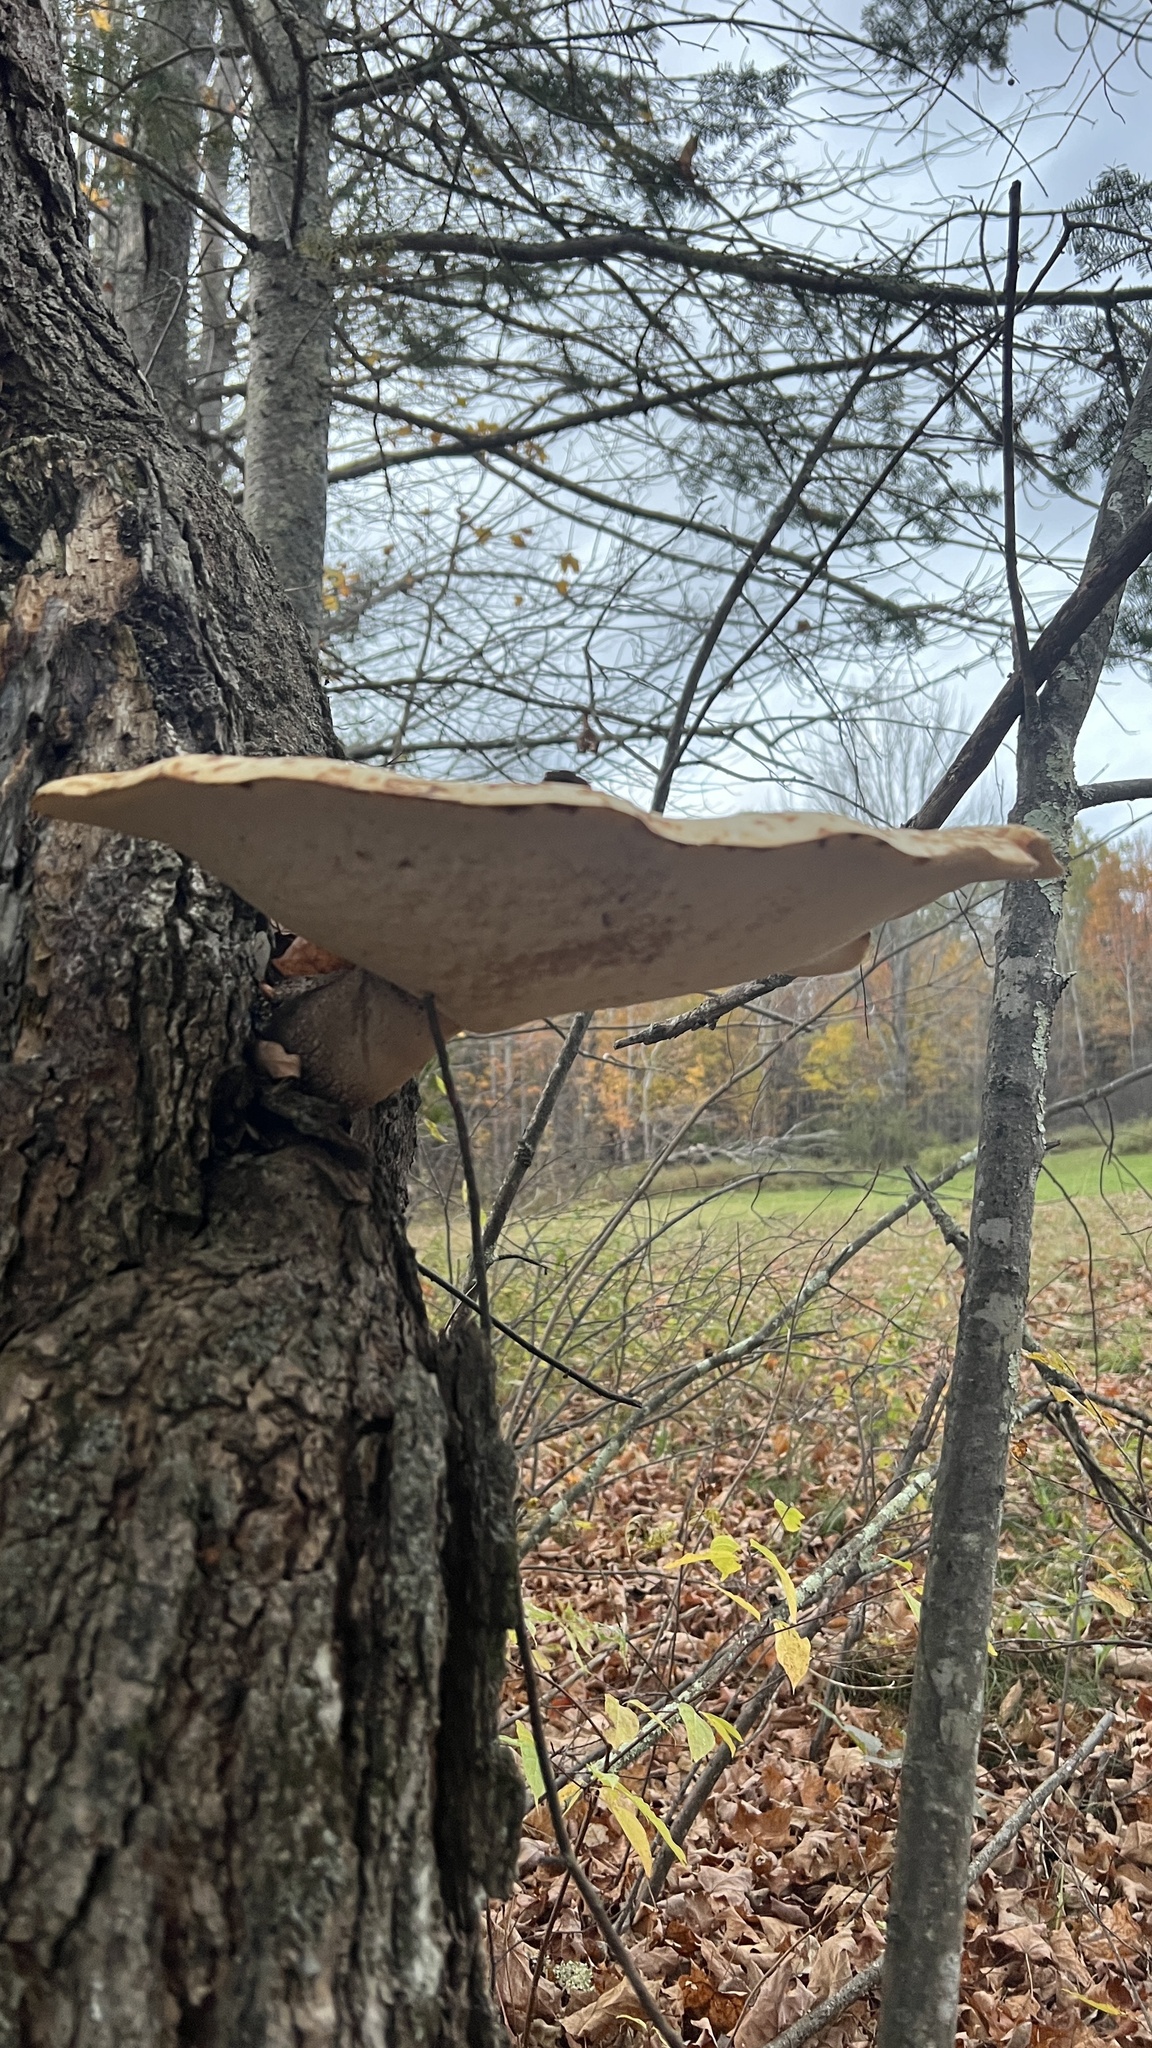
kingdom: Fungi
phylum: Basidiomycota
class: Agaricomycetes
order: Polyporales
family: Polyporaceae
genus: Cerioporus
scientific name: Cerioporus squamosus
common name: Dryad's saddle
